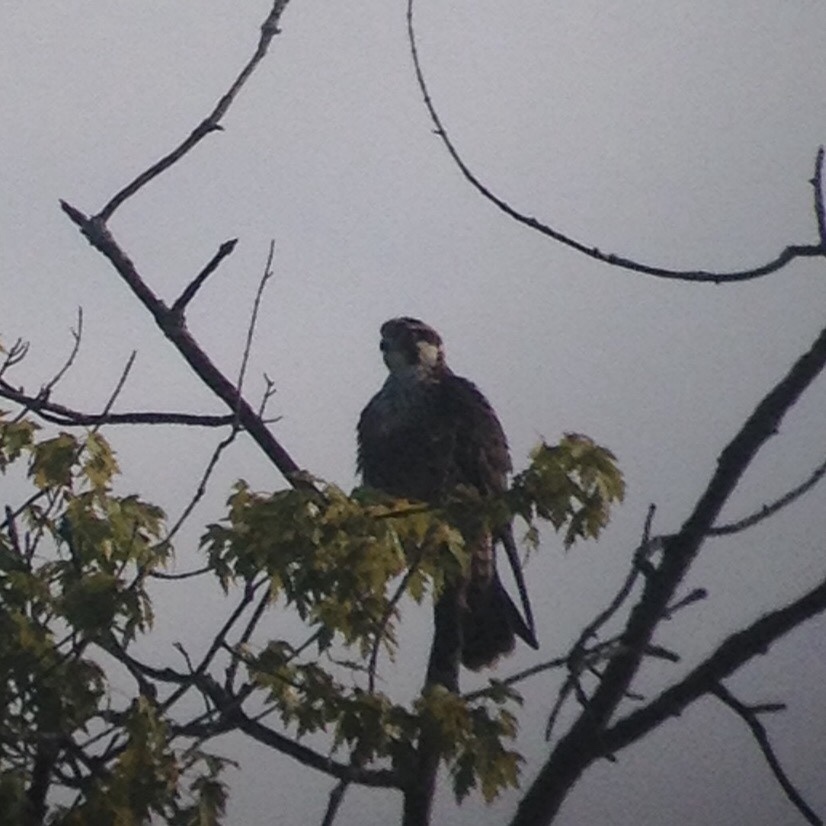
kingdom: Animalia
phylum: Chordata
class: Aves
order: Falconiformes
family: Falconidae
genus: Falco
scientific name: Falco peregrinus
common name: Peregrine falcon
